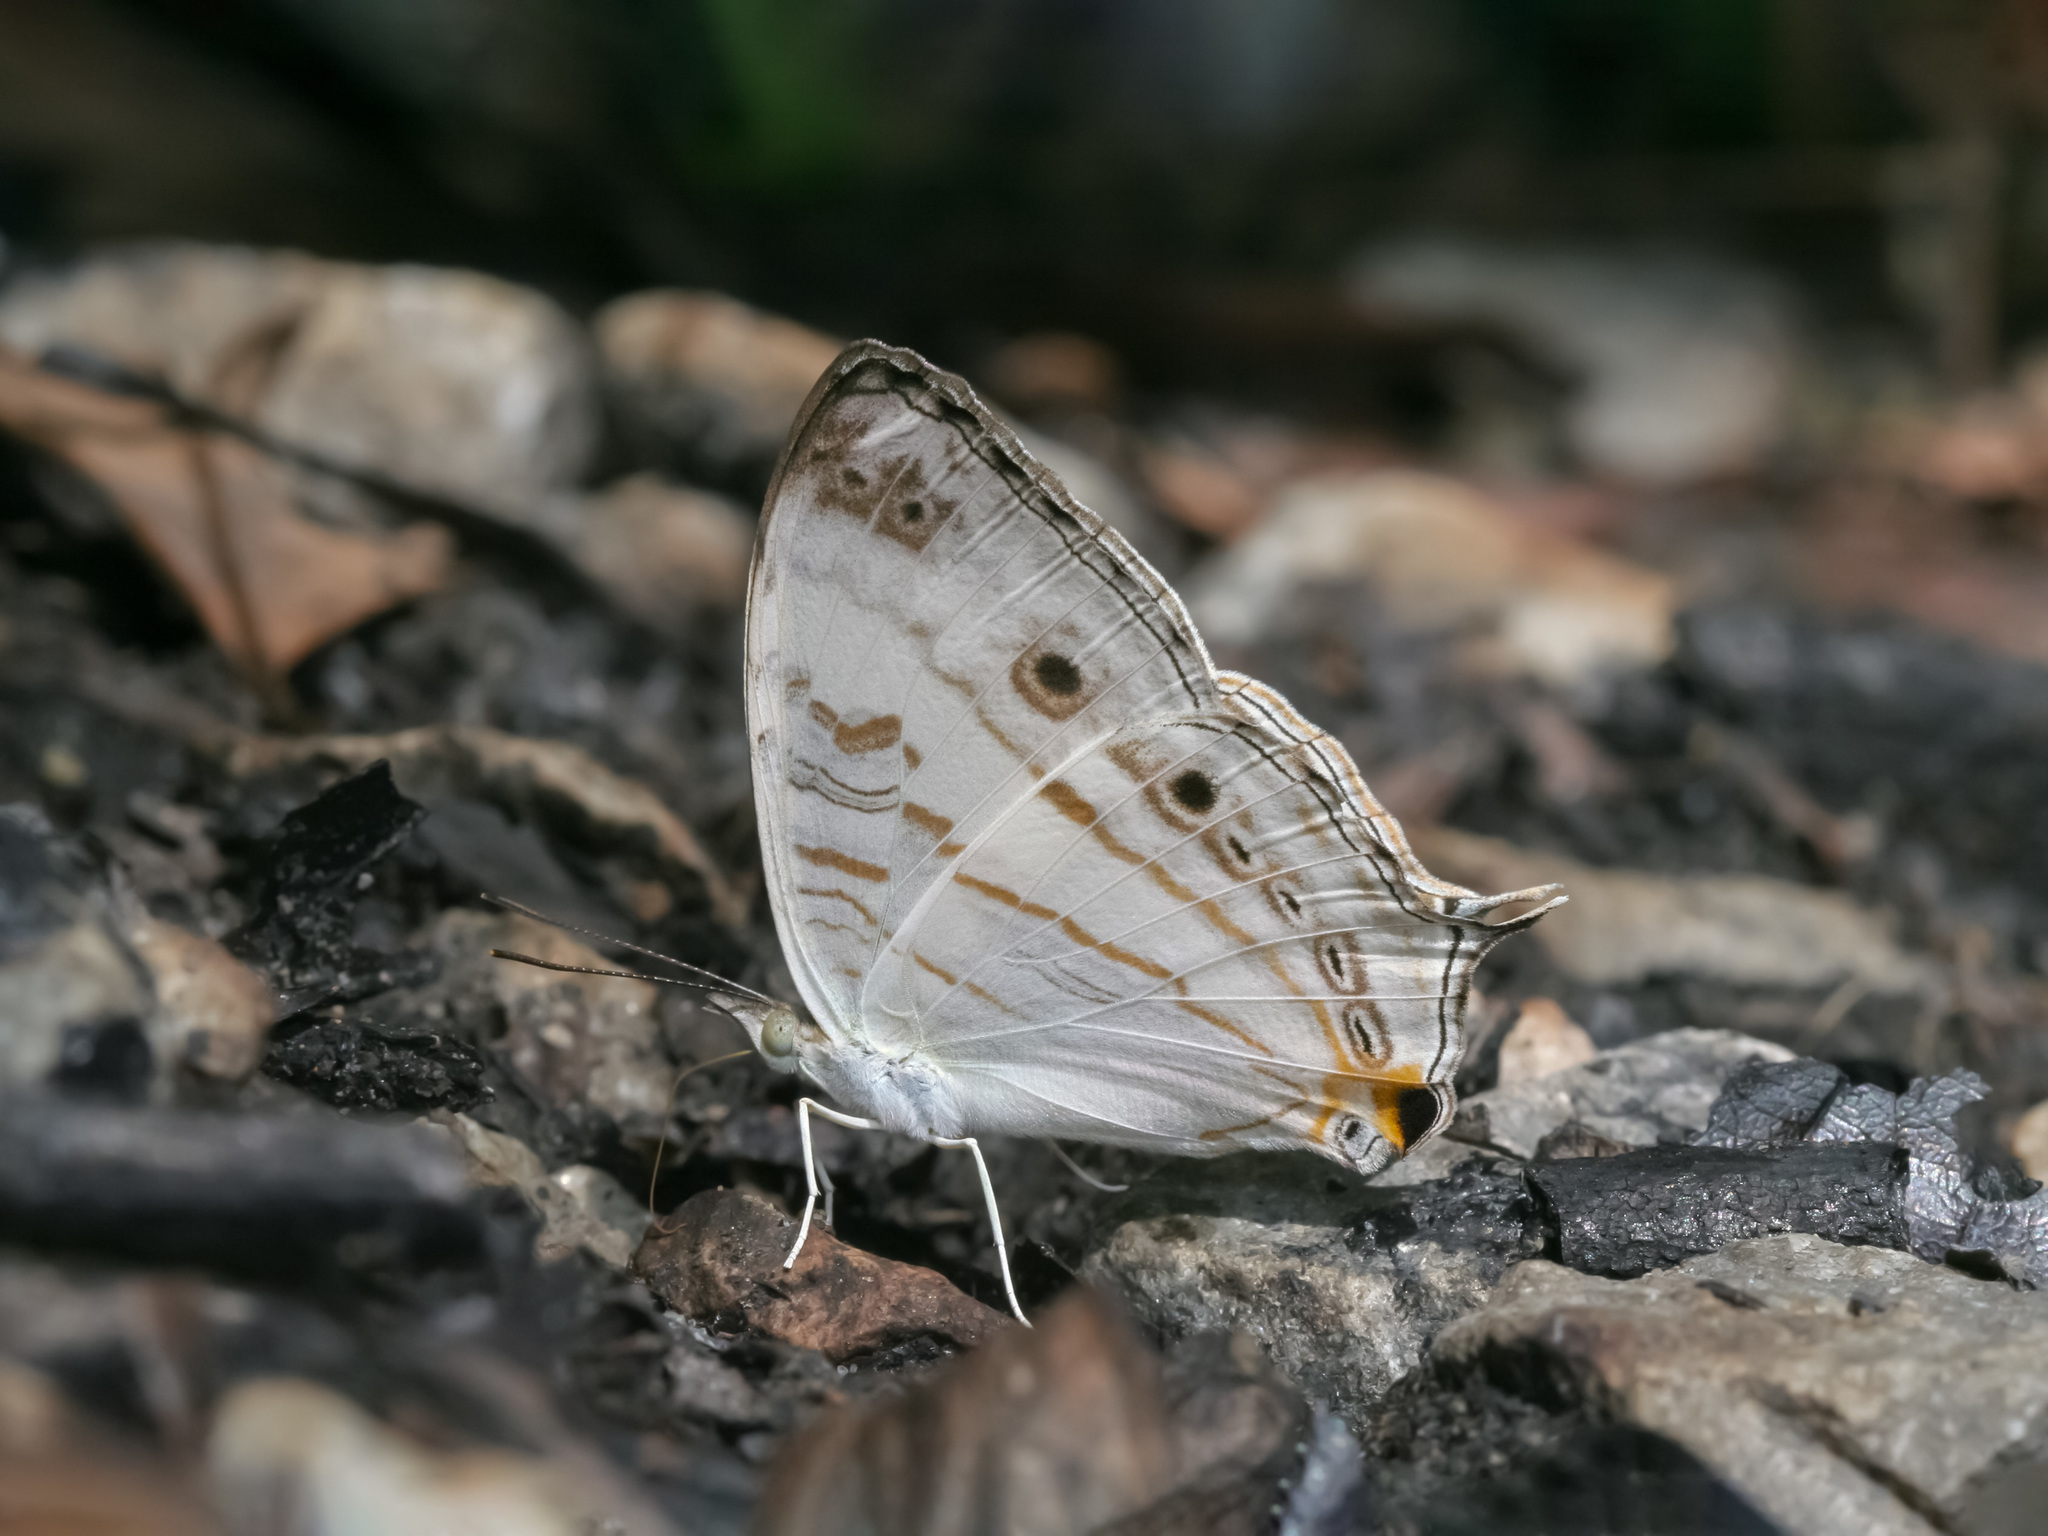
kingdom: Animalia
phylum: Arthropoda
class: Insecta
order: Lepidoptera
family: Nymphalidae
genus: Cyrestis
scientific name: Cyrestis cocles
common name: Marbled map
